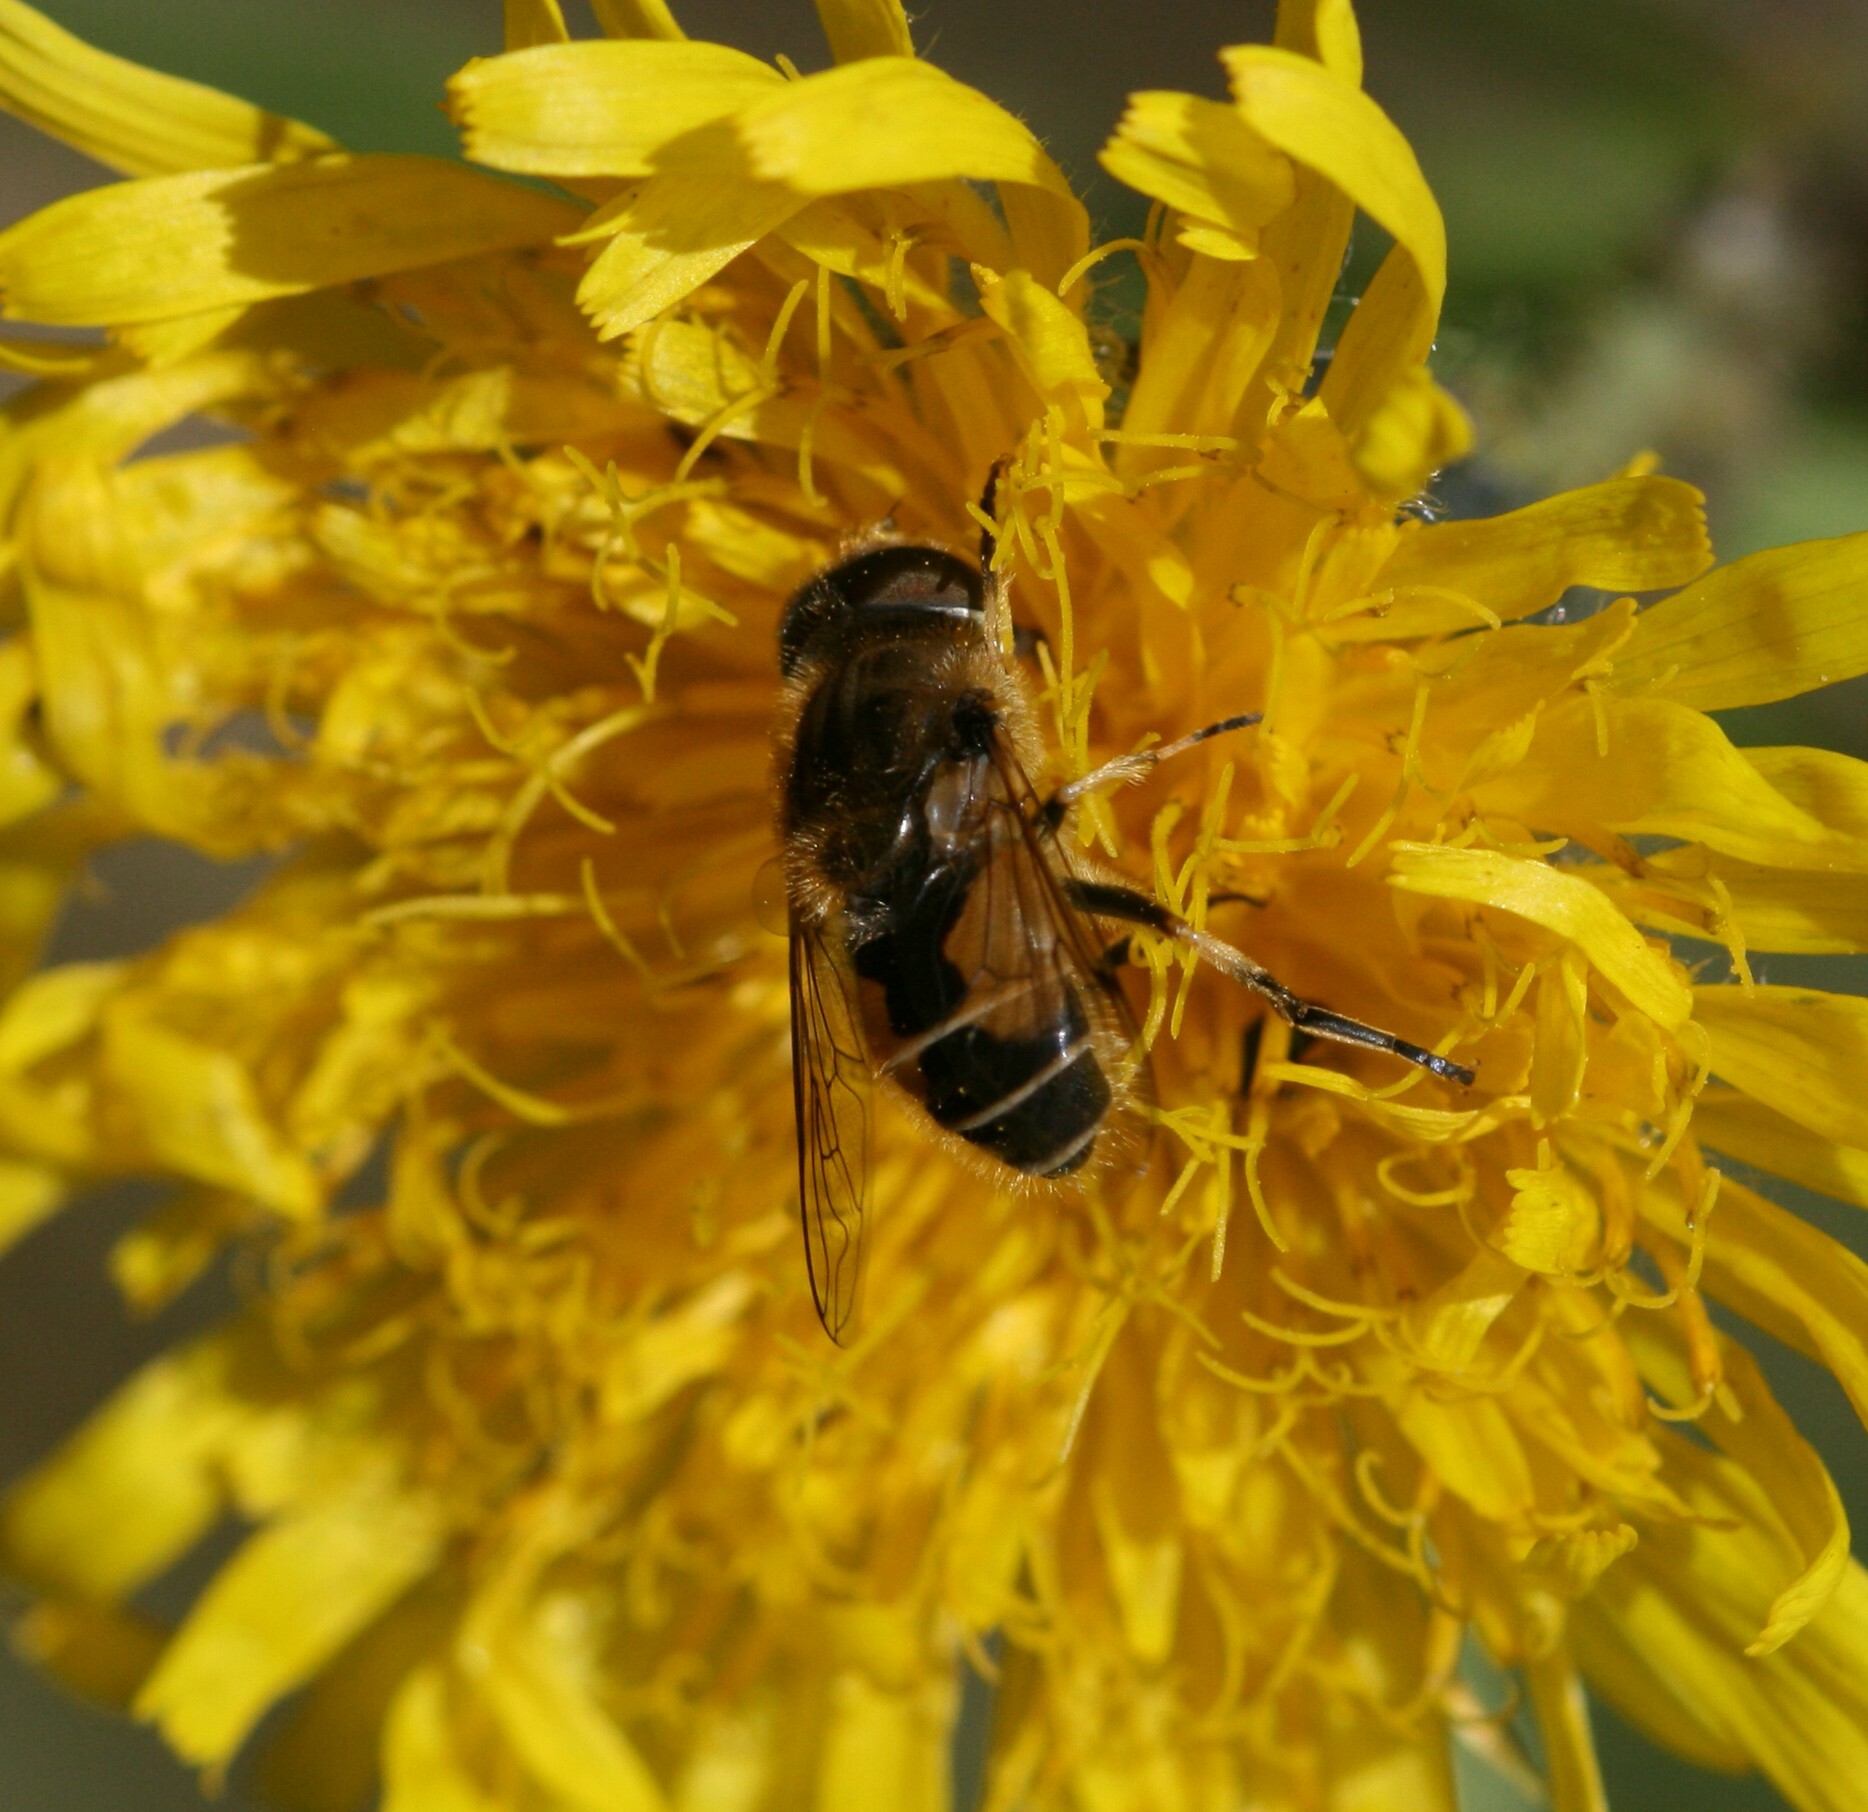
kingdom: Animalia
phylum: Arthropoda
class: Insecta
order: Diptera
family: Syrphidae
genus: Eristalis
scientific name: Eristalis arbustorum
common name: Hover fly
